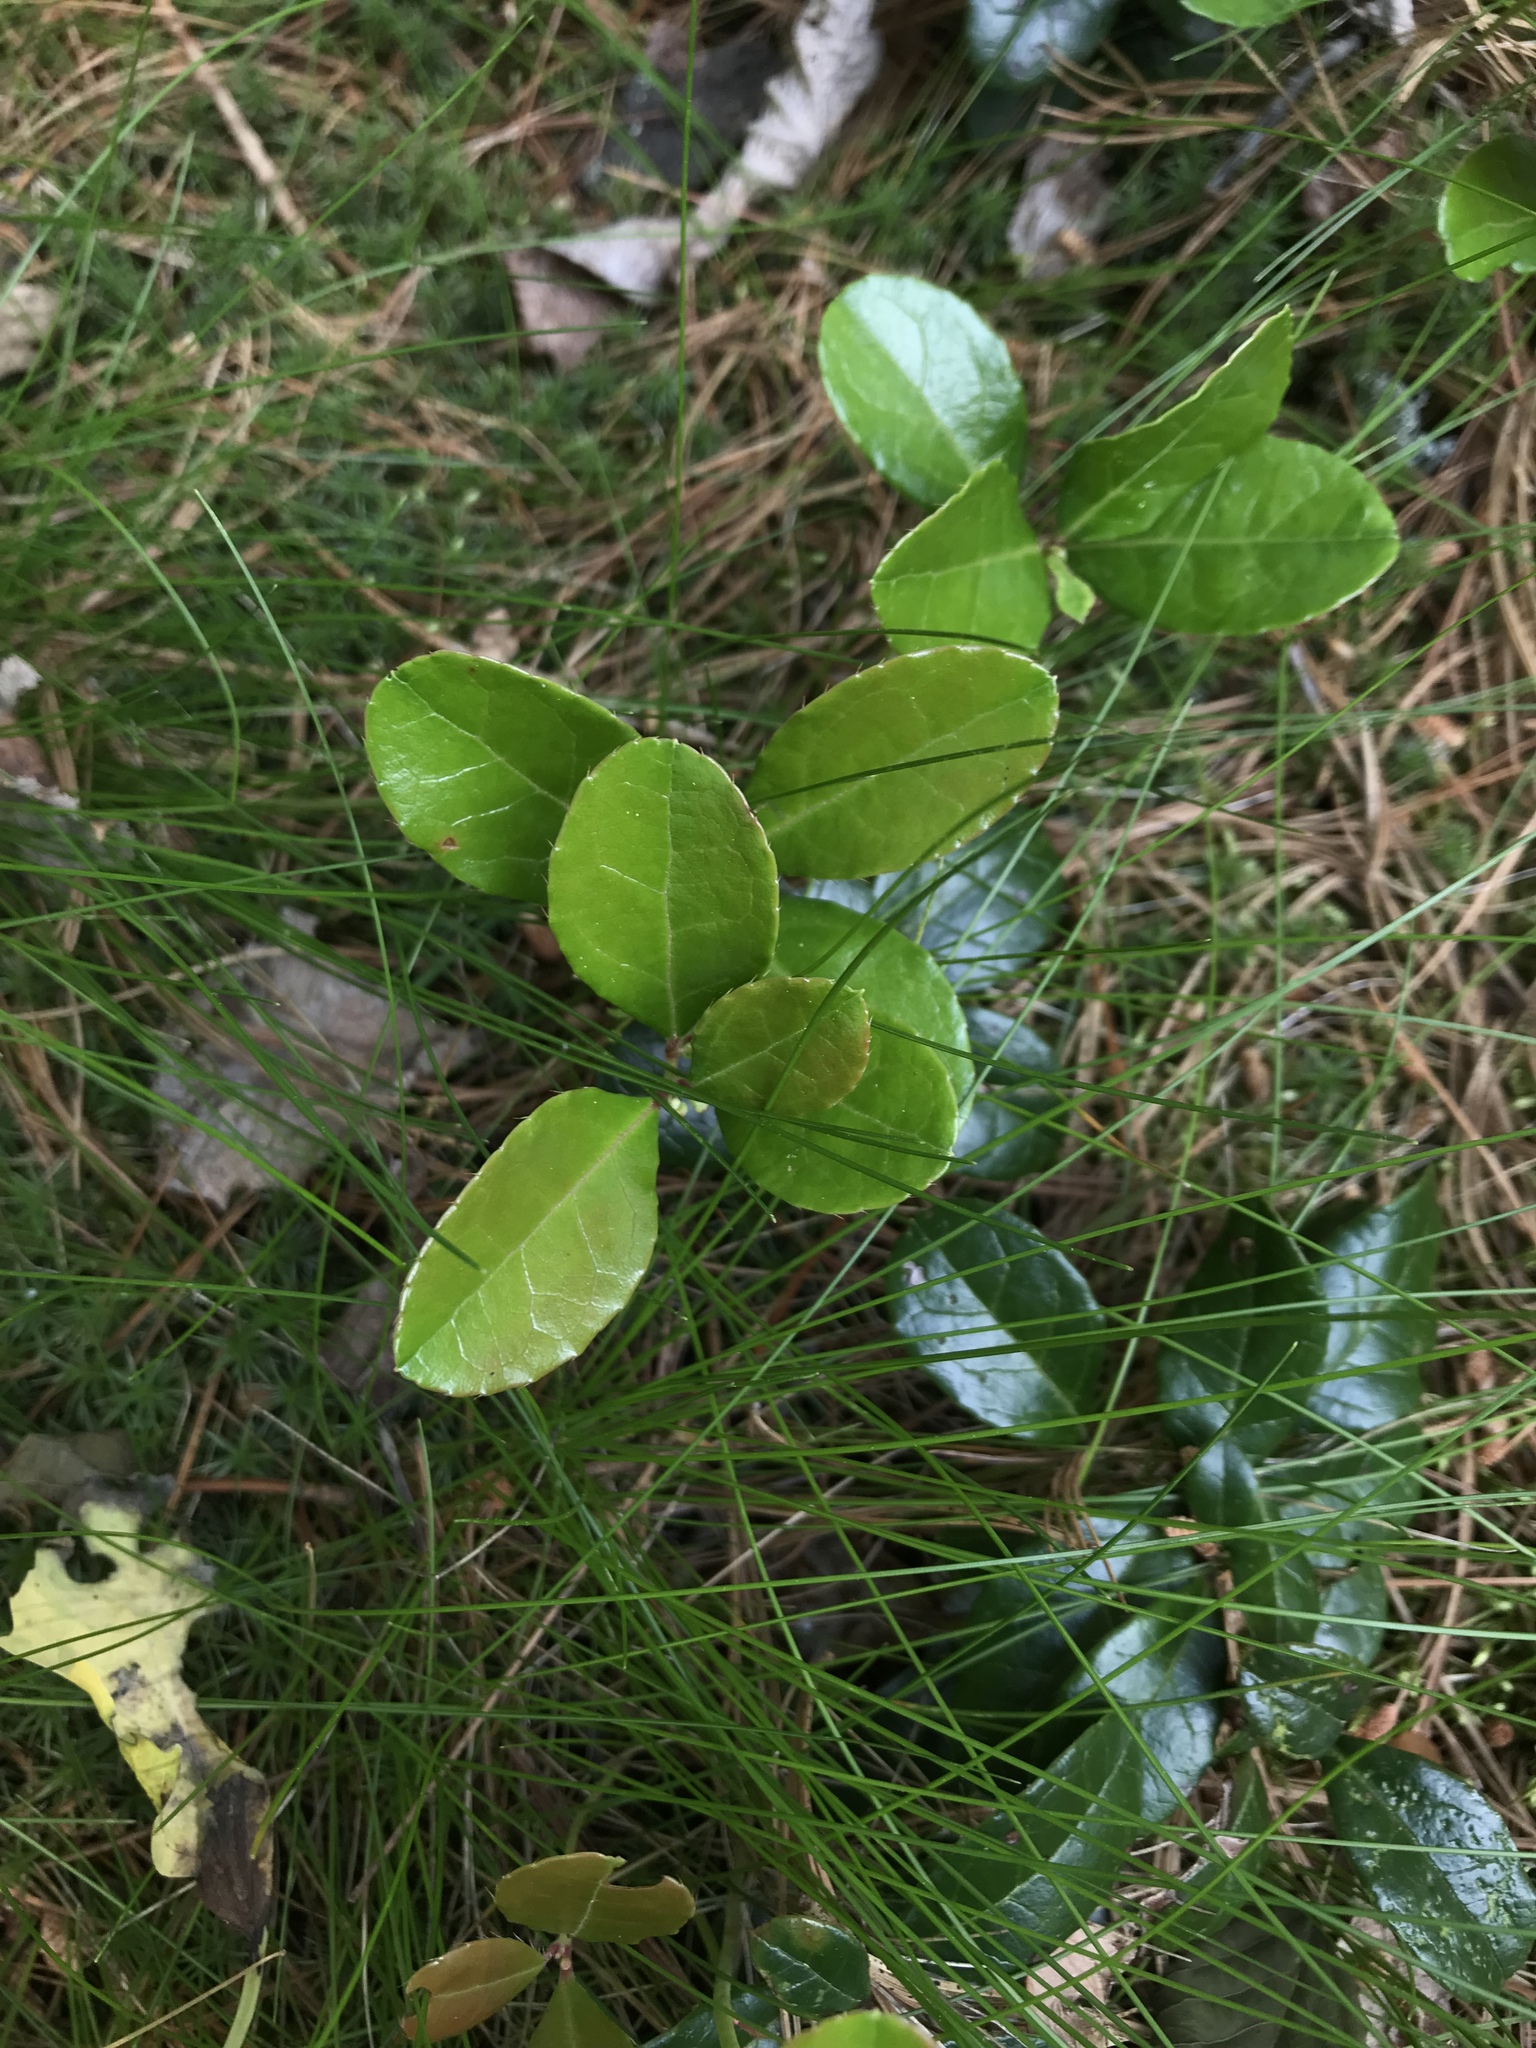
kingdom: Plantae
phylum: Tracheophyta
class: Magnoliopsida
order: Ericales
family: Ericaceae
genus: Gaultheria
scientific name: Gaultheria procumbens
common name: Checkerberry
